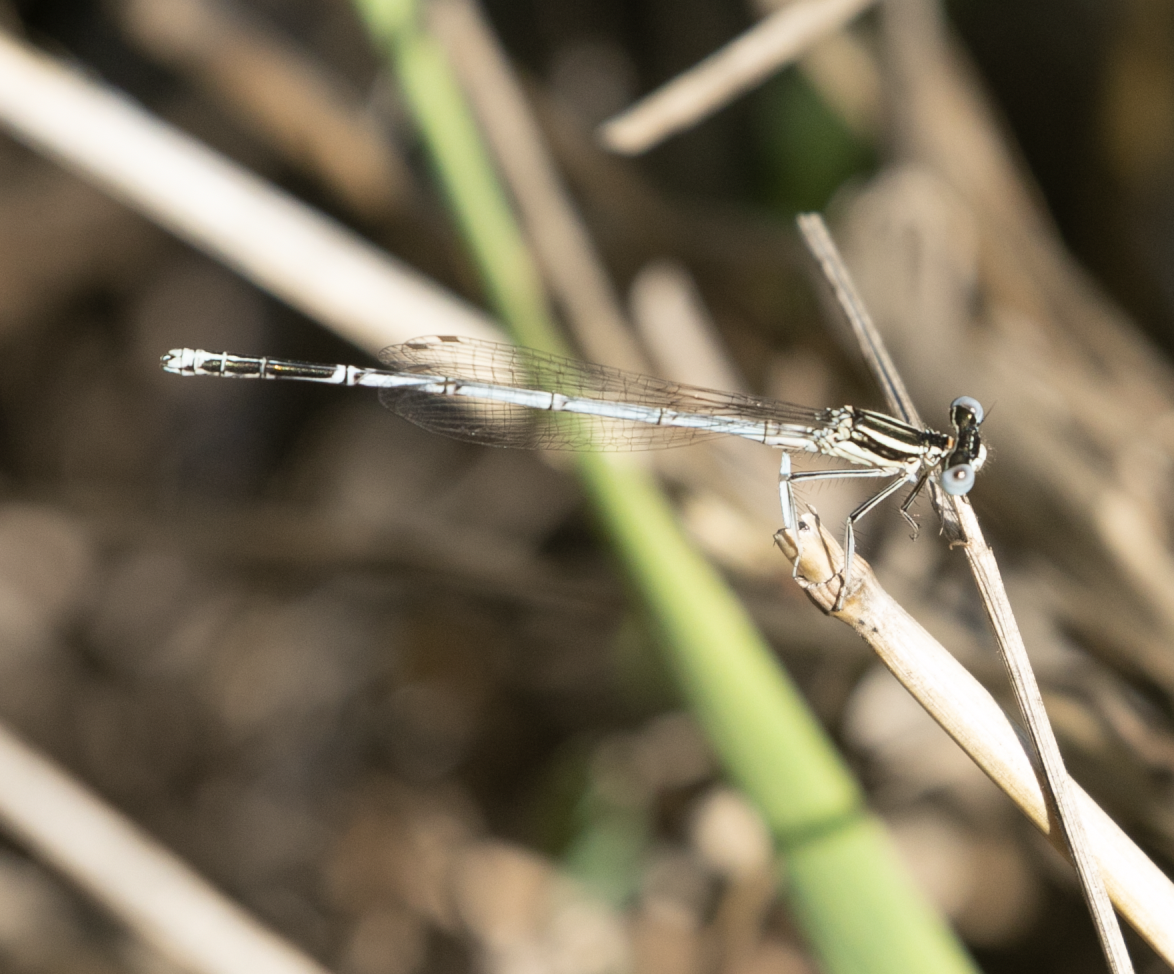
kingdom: Animalia
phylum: Arthropoda
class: Insecta
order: Odonata
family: Platycnemididae
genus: Platycnemis
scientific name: Platycnemis pennipes
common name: White-legged damselfly
